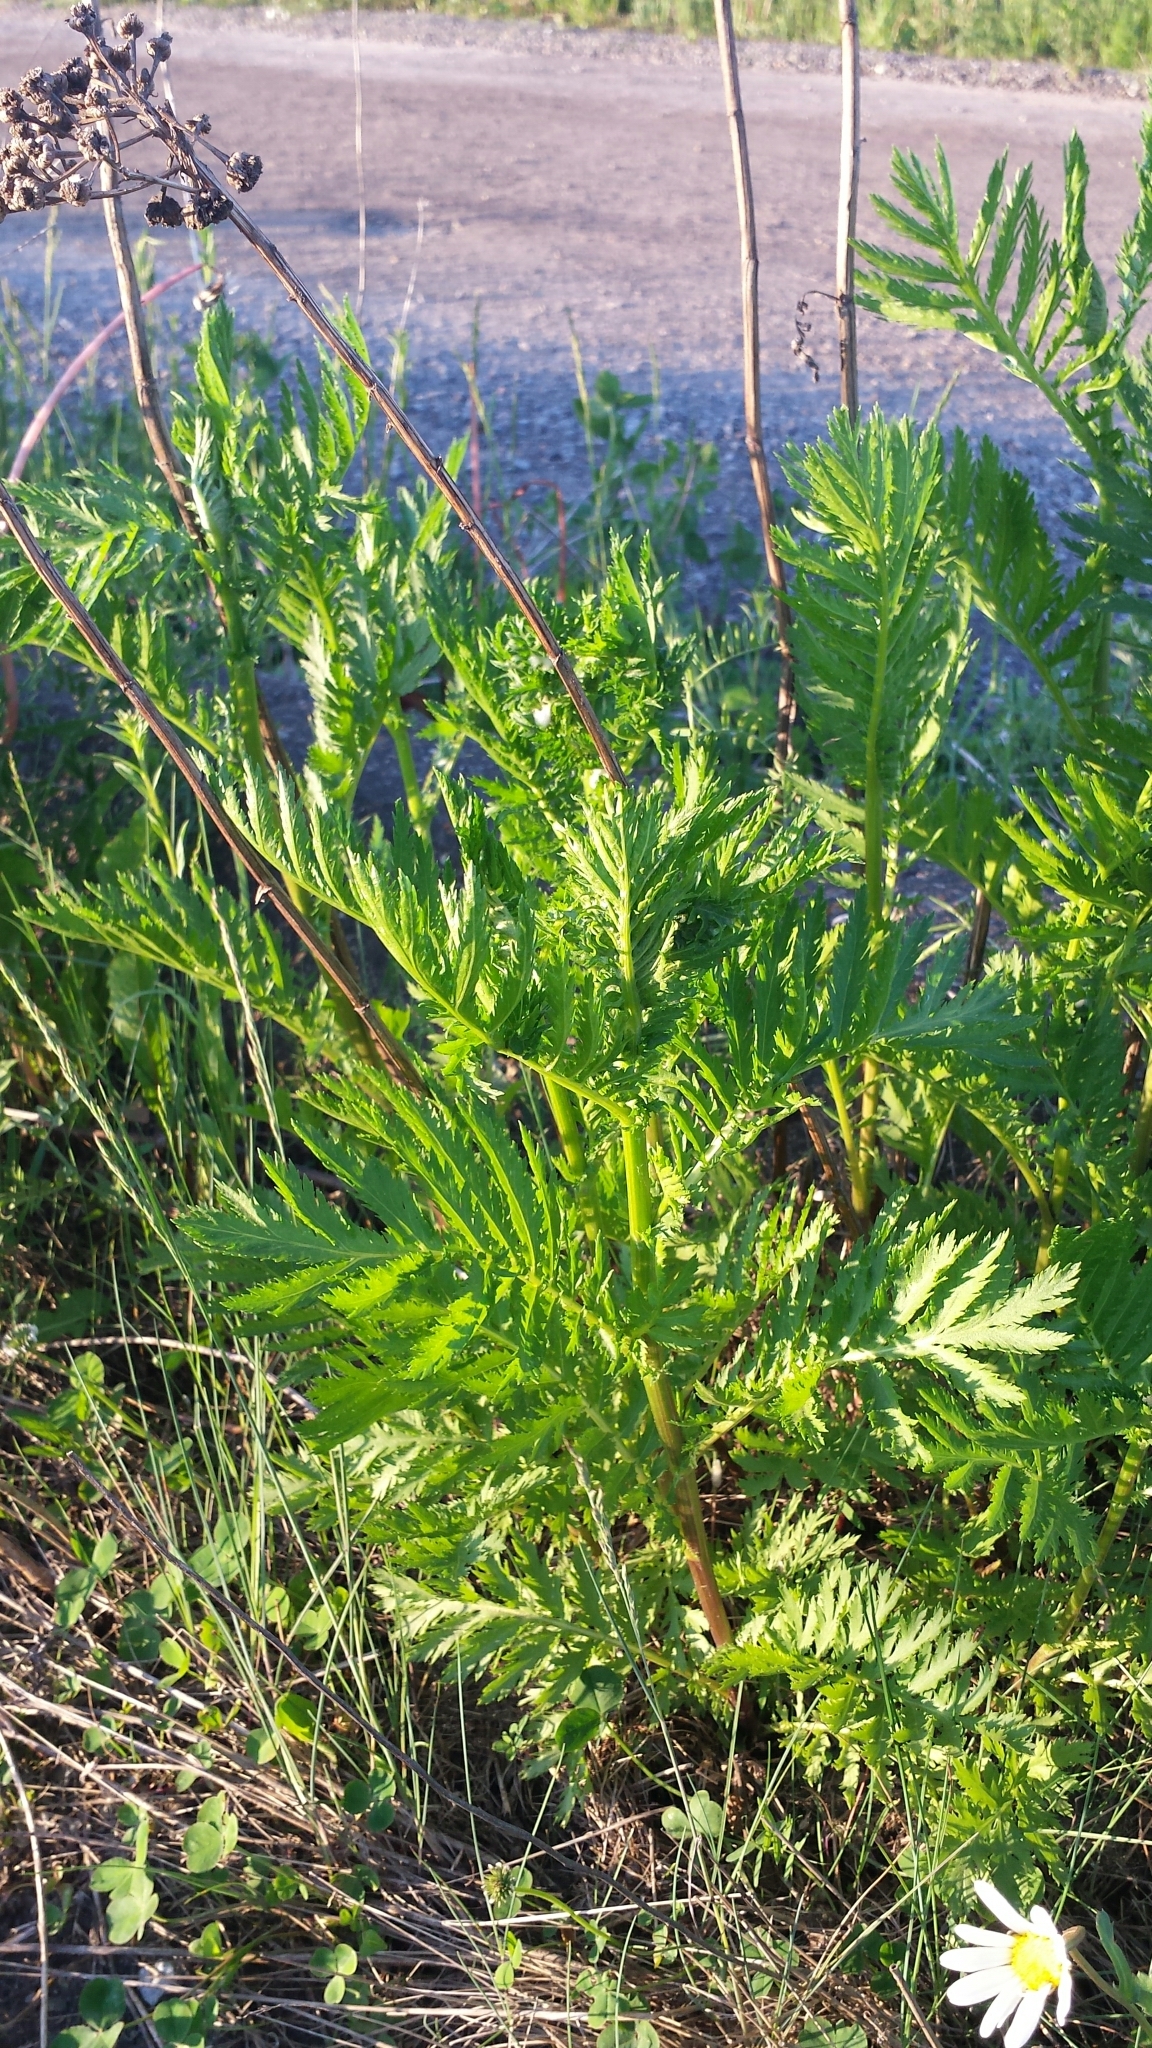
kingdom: Plantae
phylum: Tracheophyta
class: Magnoliopsida
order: Asterales
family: Asteraceae
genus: Tanacetum
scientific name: Tanacetum vulgare
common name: Common tansy
